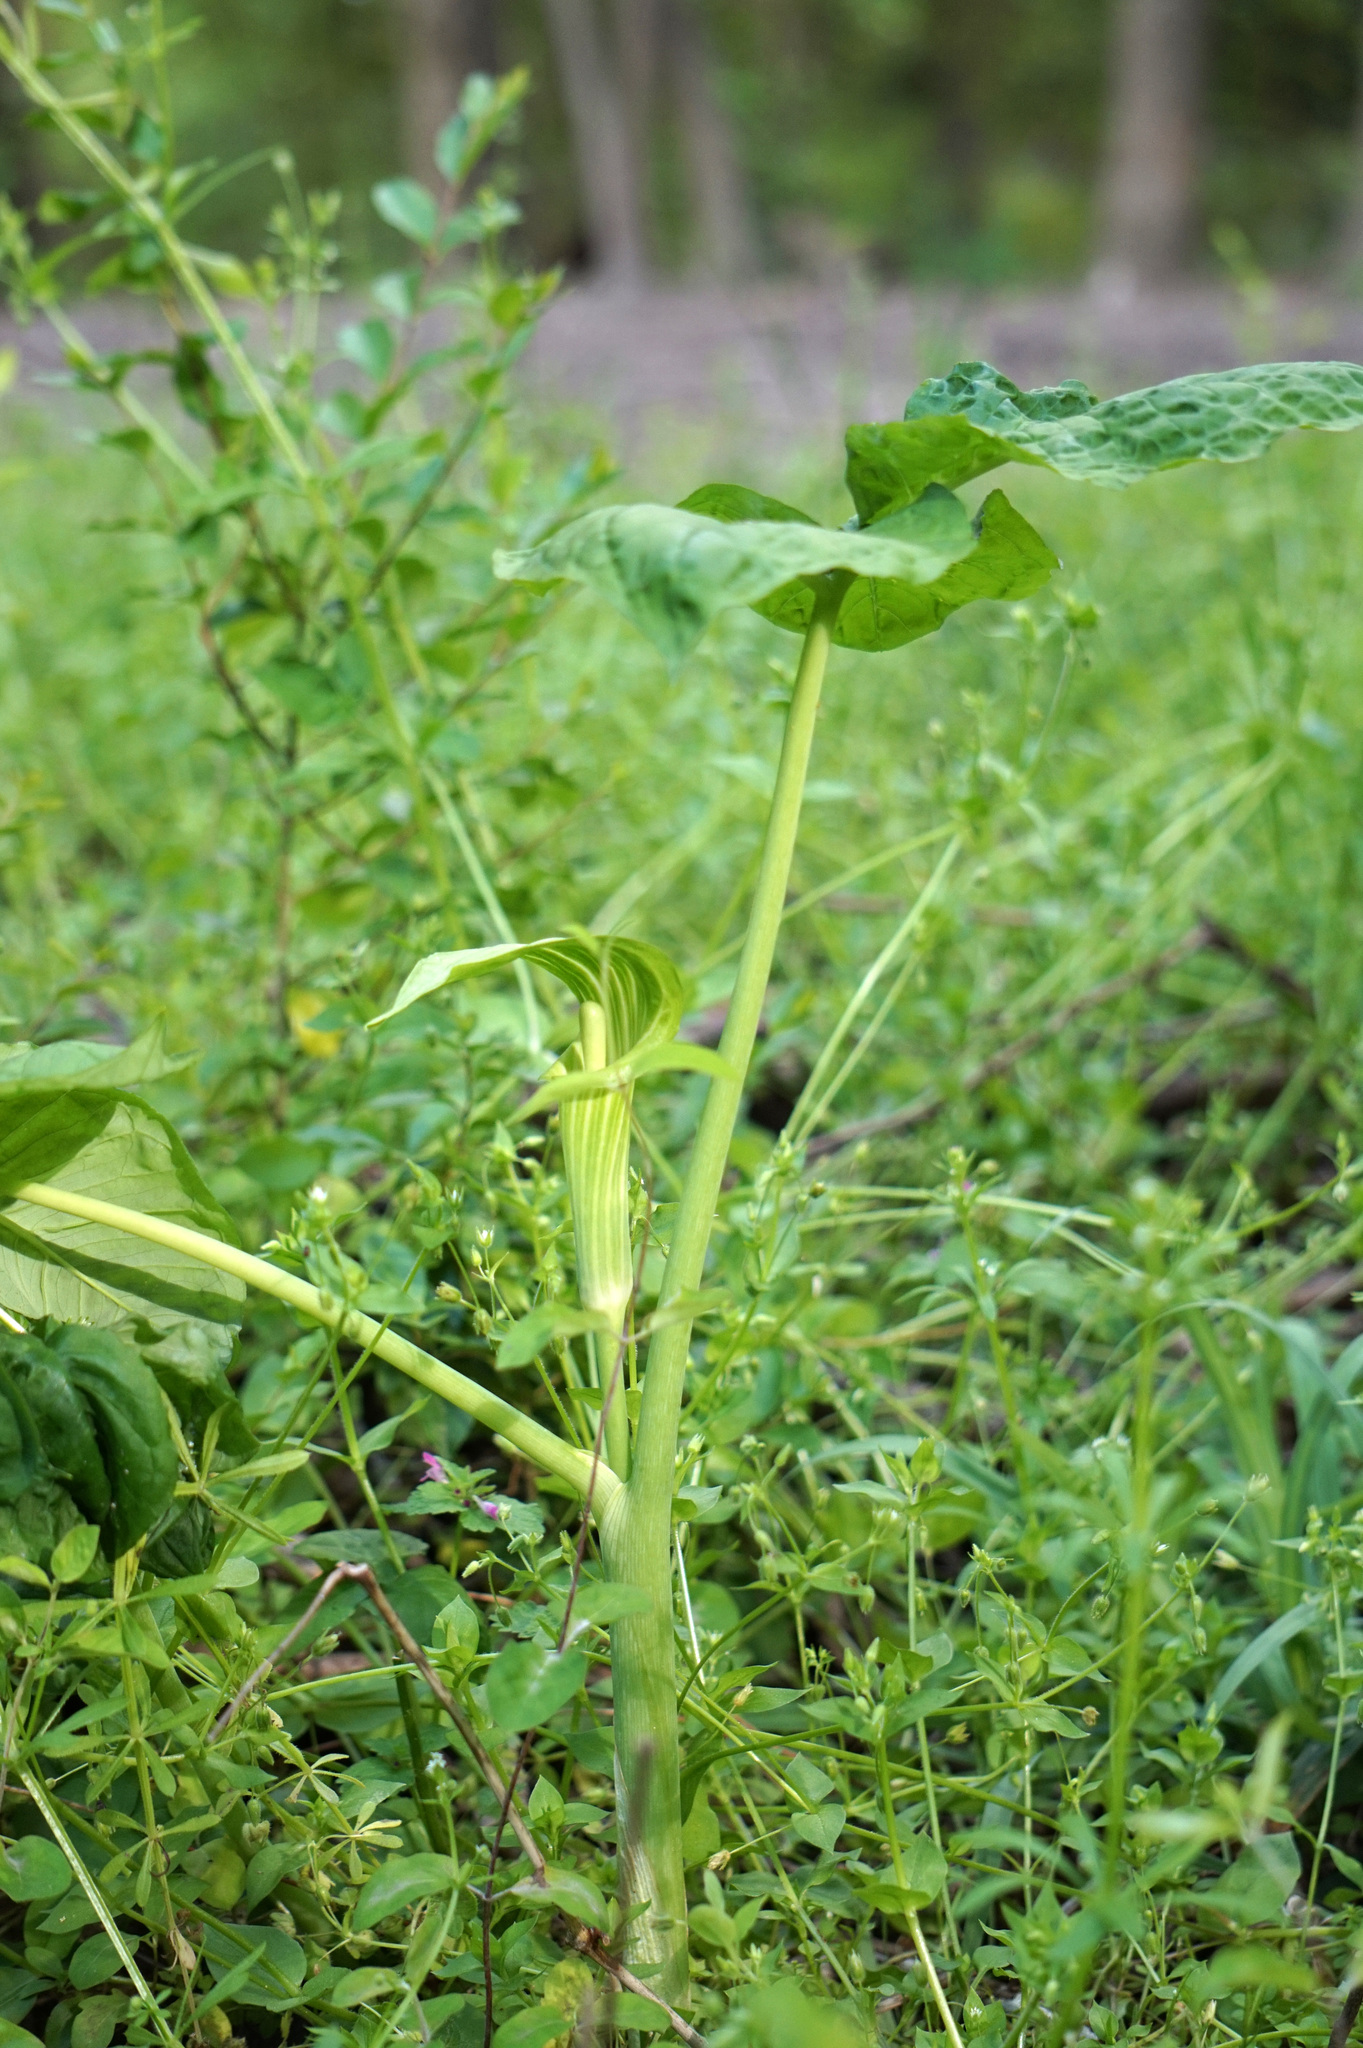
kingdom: Plantae
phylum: Tracheophyta
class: Liliopsida
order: Alismatales
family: Araceae
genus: Arisaema
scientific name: Arisaema triphyllum
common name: Jack-in-the-pulpit
